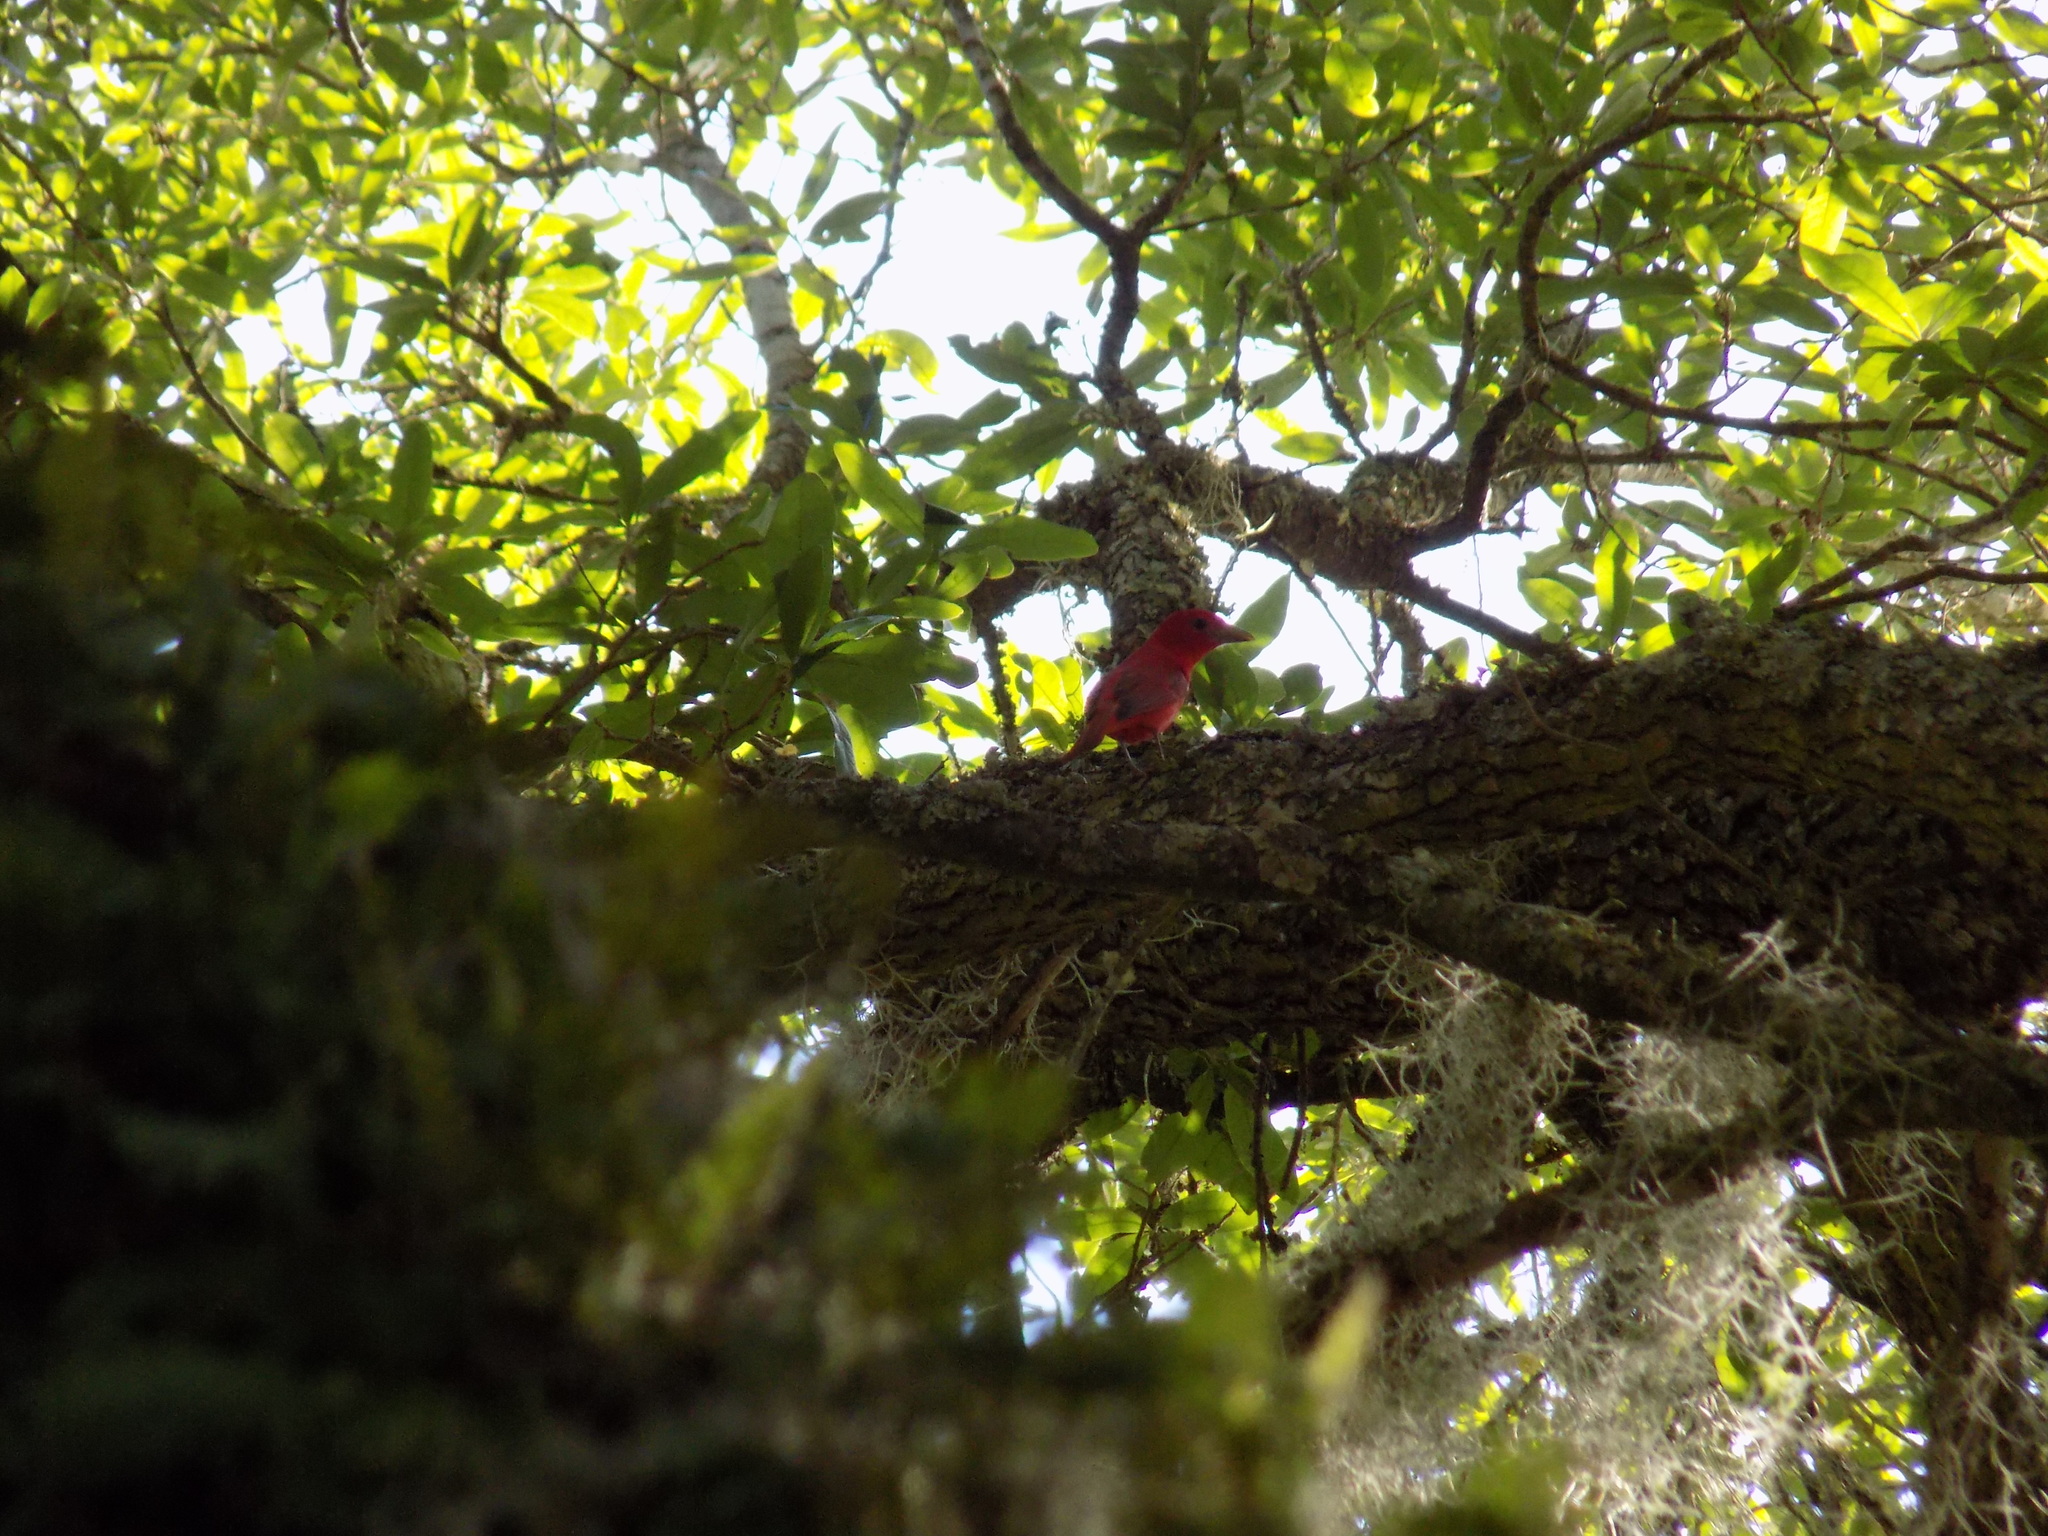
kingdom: Animalia
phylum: Chordata
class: Aves
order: Passeriformes
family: Cardinalidae
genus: Piranga
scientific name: Piranga rubra
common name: Summer tanager
